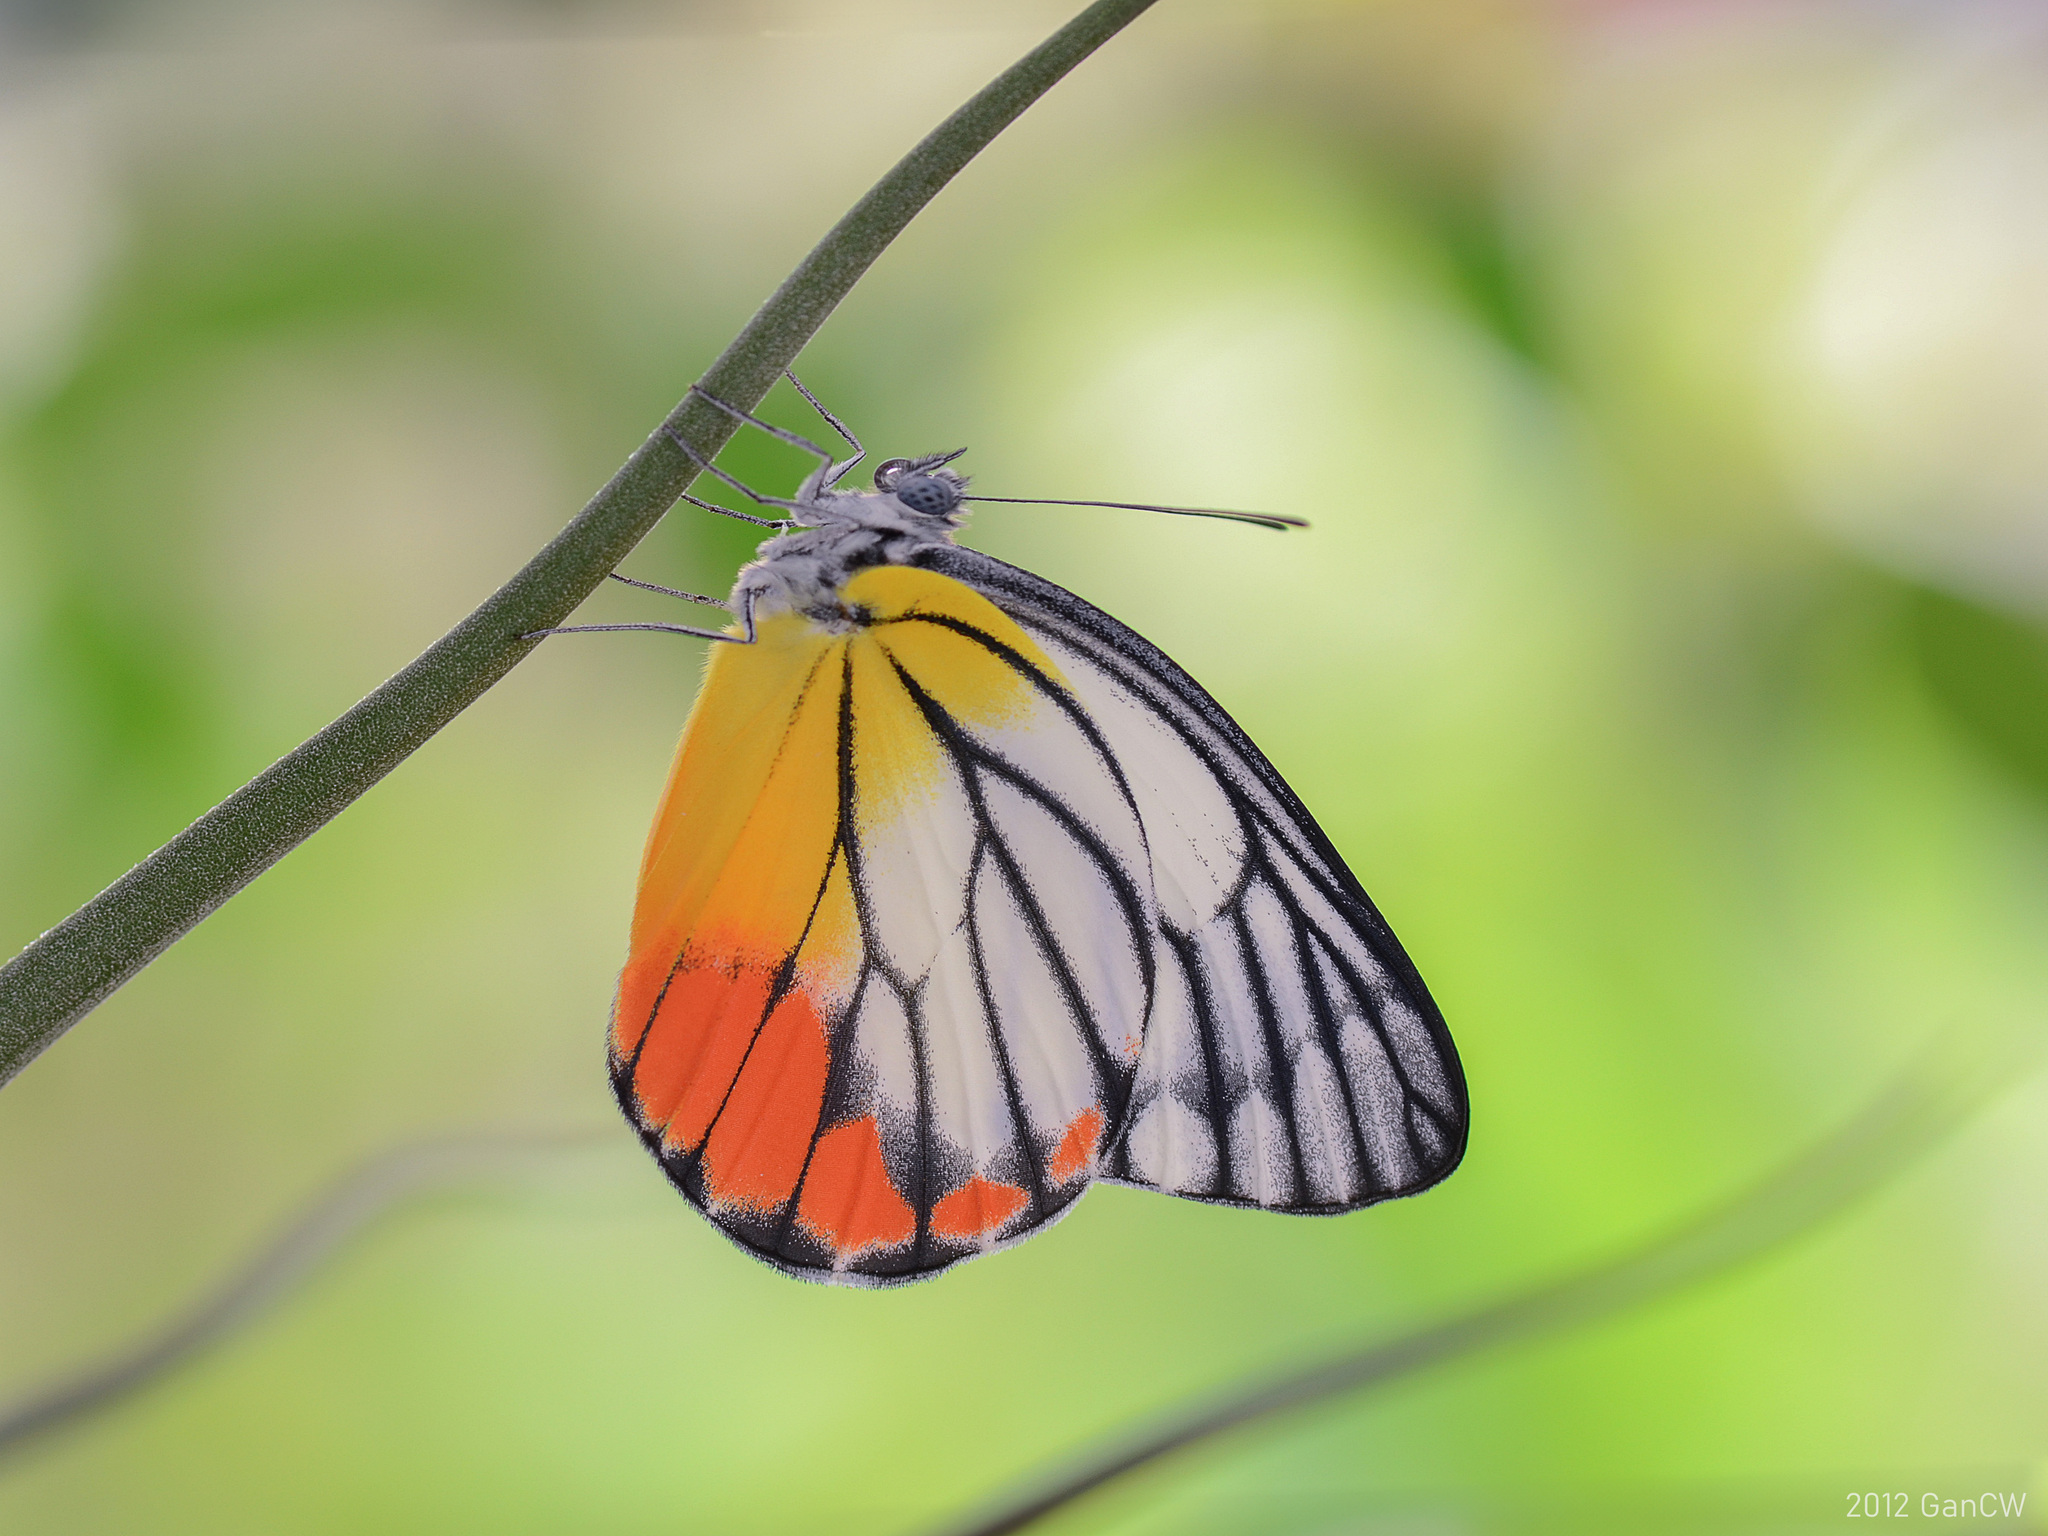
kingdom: Animalia
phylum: Arthropoda
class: Insecta
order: Lepidoptera
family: Pieridae
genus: Delias
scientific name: Delias hyparete
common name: Painted jezebel
